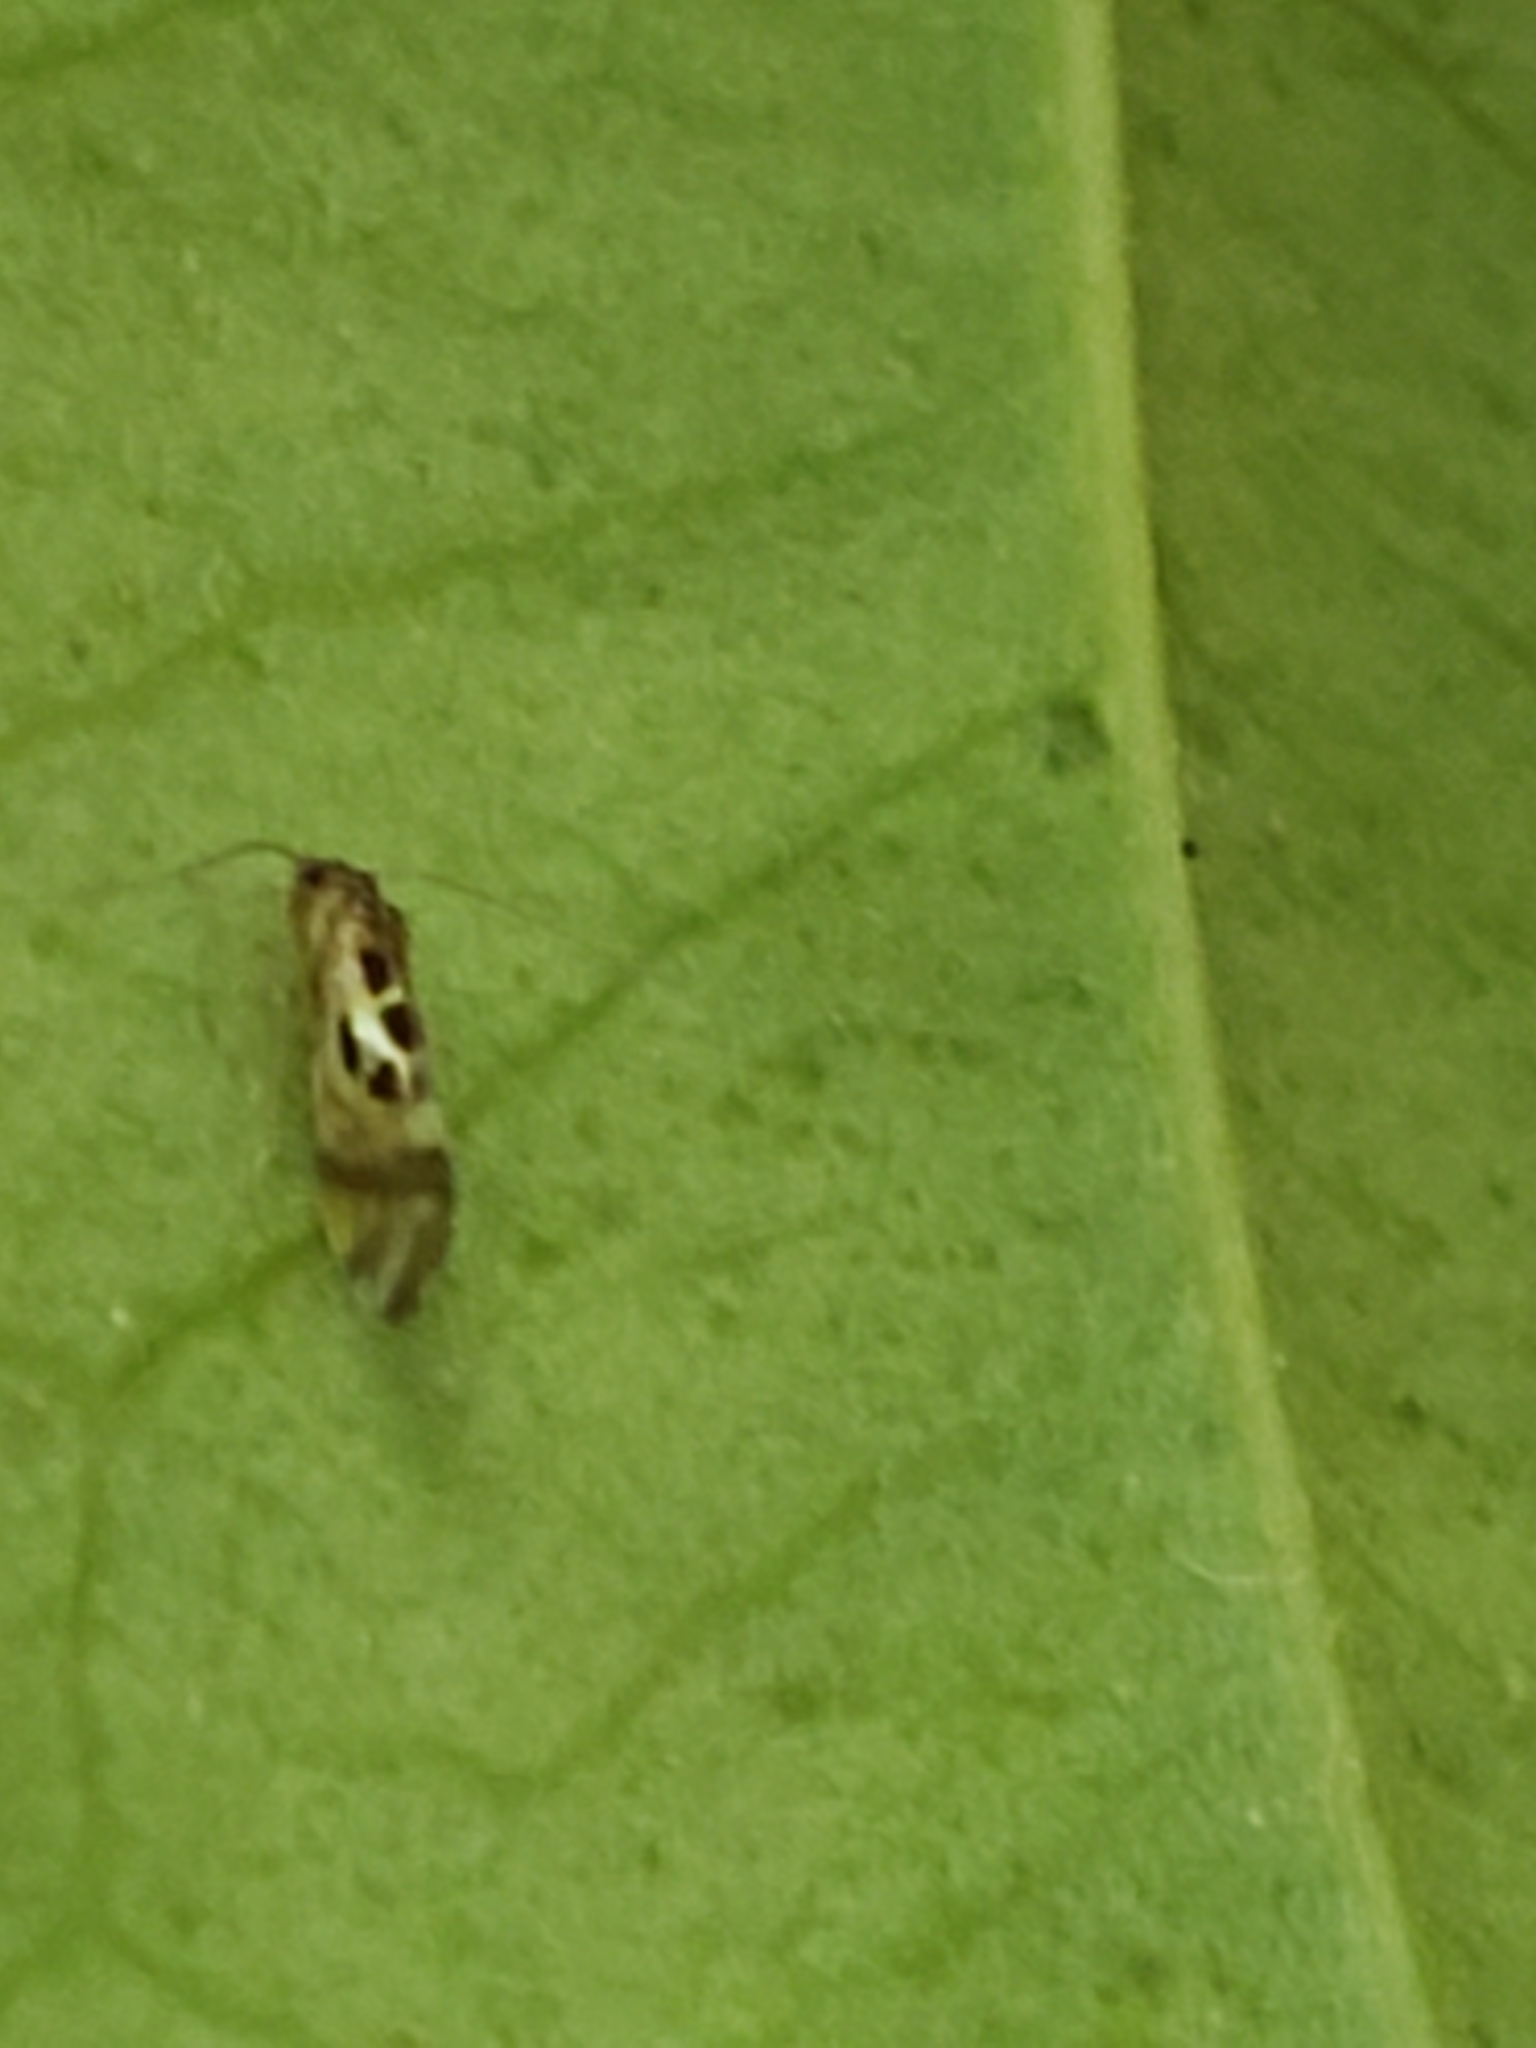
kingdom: Animalia
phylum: Arthropoda
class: Insecta
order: Psocodea
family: Stenopsocidae
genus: Graphopsocus
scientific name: Graphopsocus cruciatus
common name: Lizard bark louse
